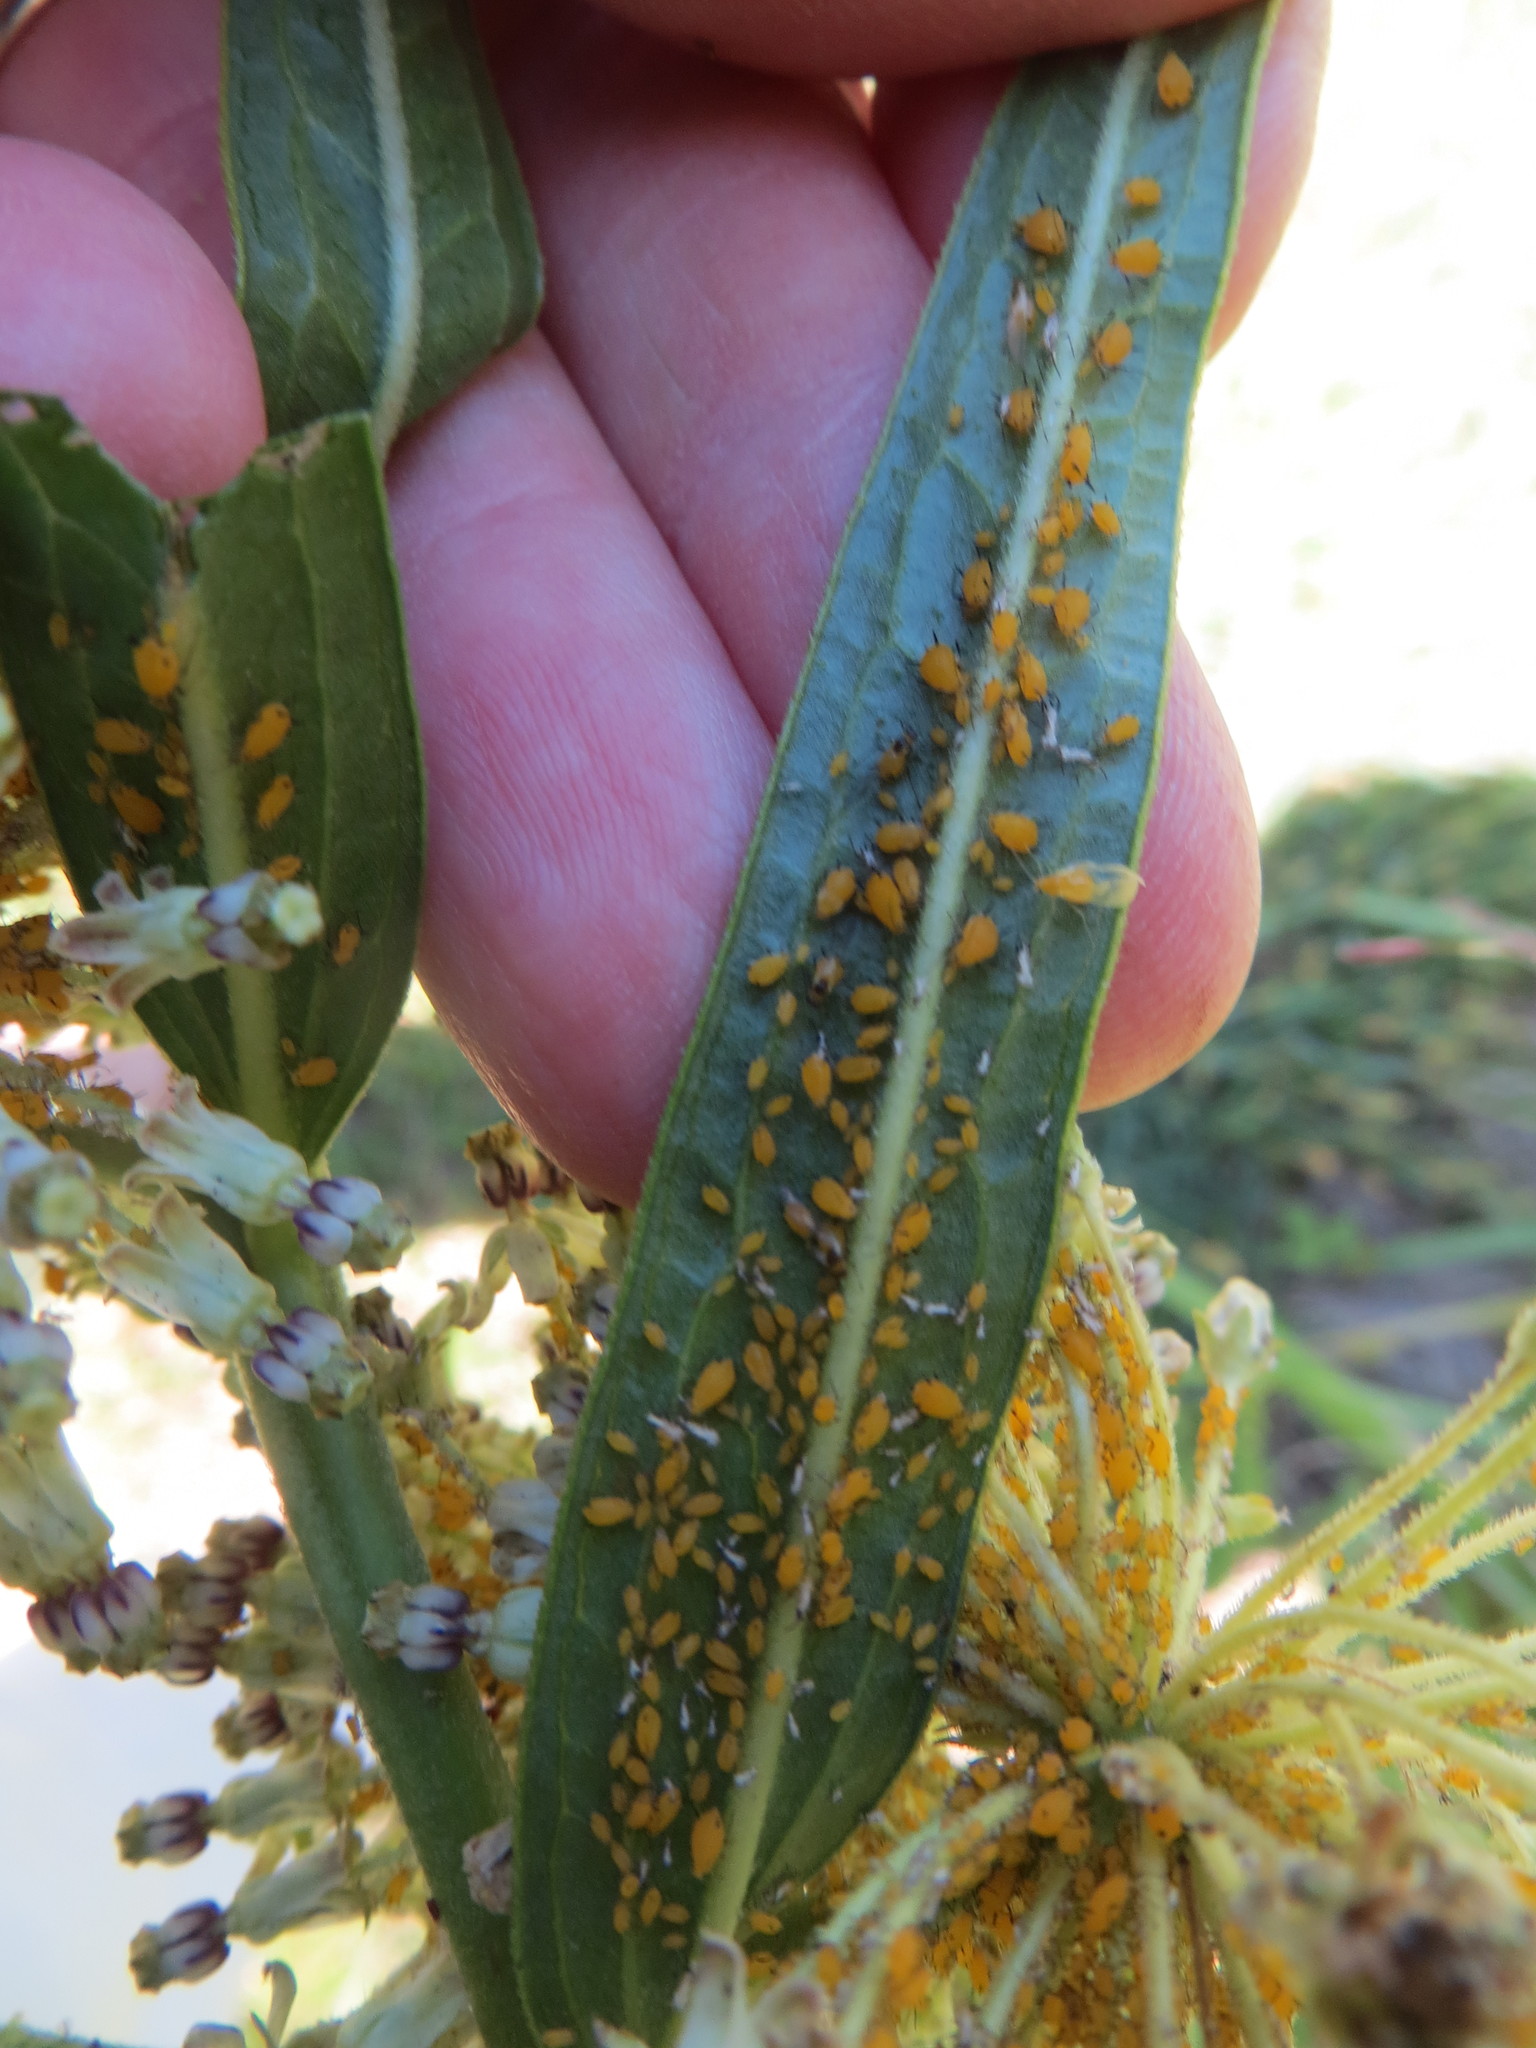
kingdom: Animalia
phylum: Arthropoda
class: Insecta
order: Hemiptera
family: Aphididae
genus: Aphis
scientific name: Aphis nerii
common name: Oleander aphid
